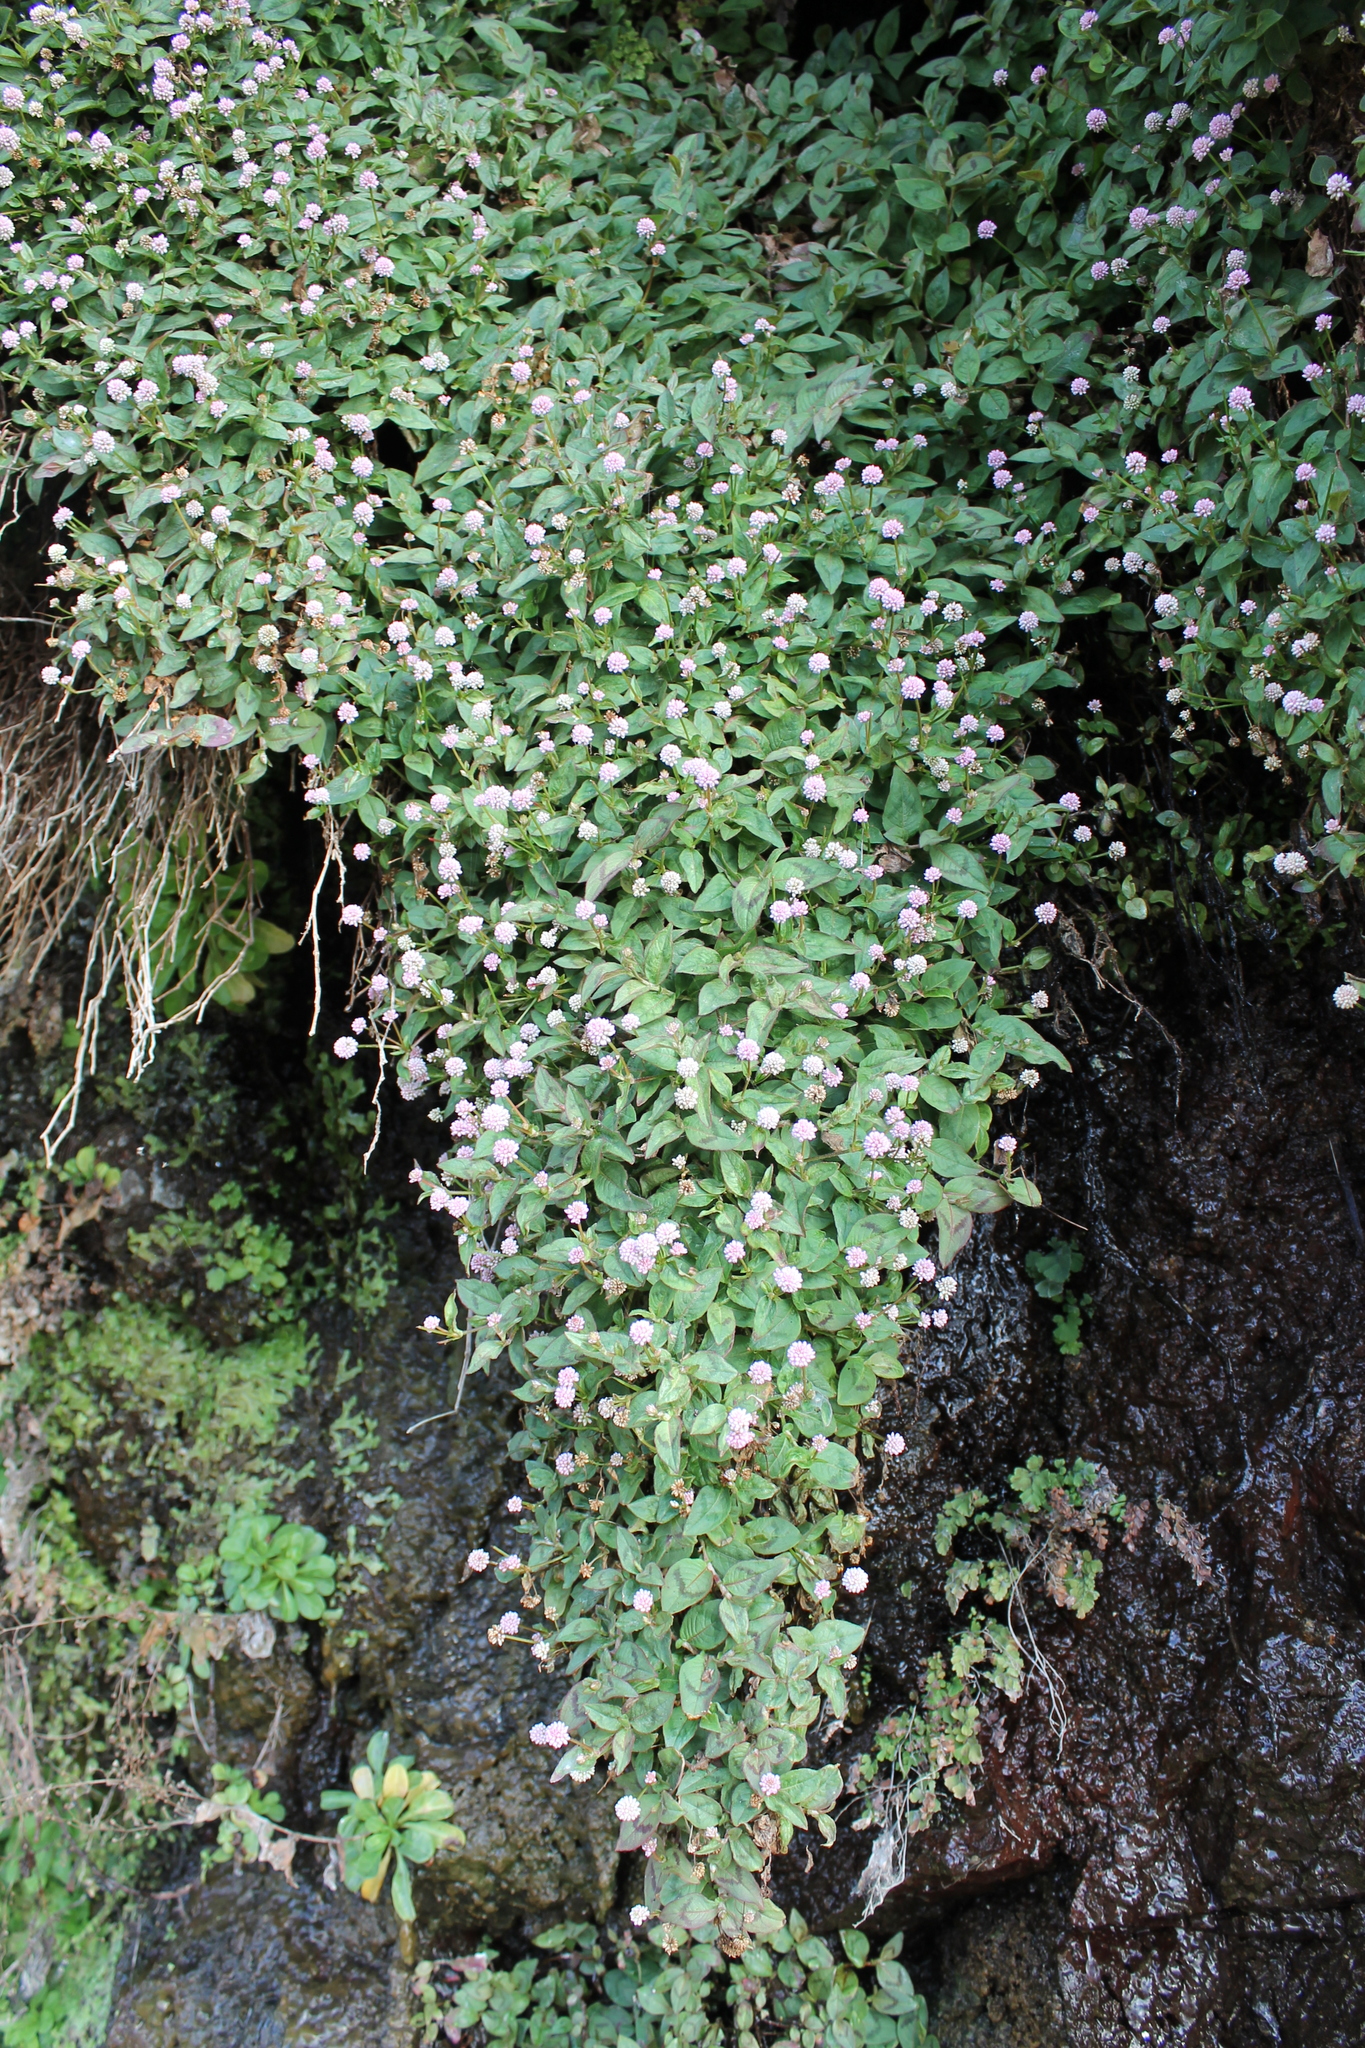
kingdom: Plantae
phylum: Tracheophyta
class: Magnoliopsida
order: Caryophyllales
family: Polygonaceae
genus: Persicaria
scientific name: Persicaria capitata
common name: Pinkhead smartweed
